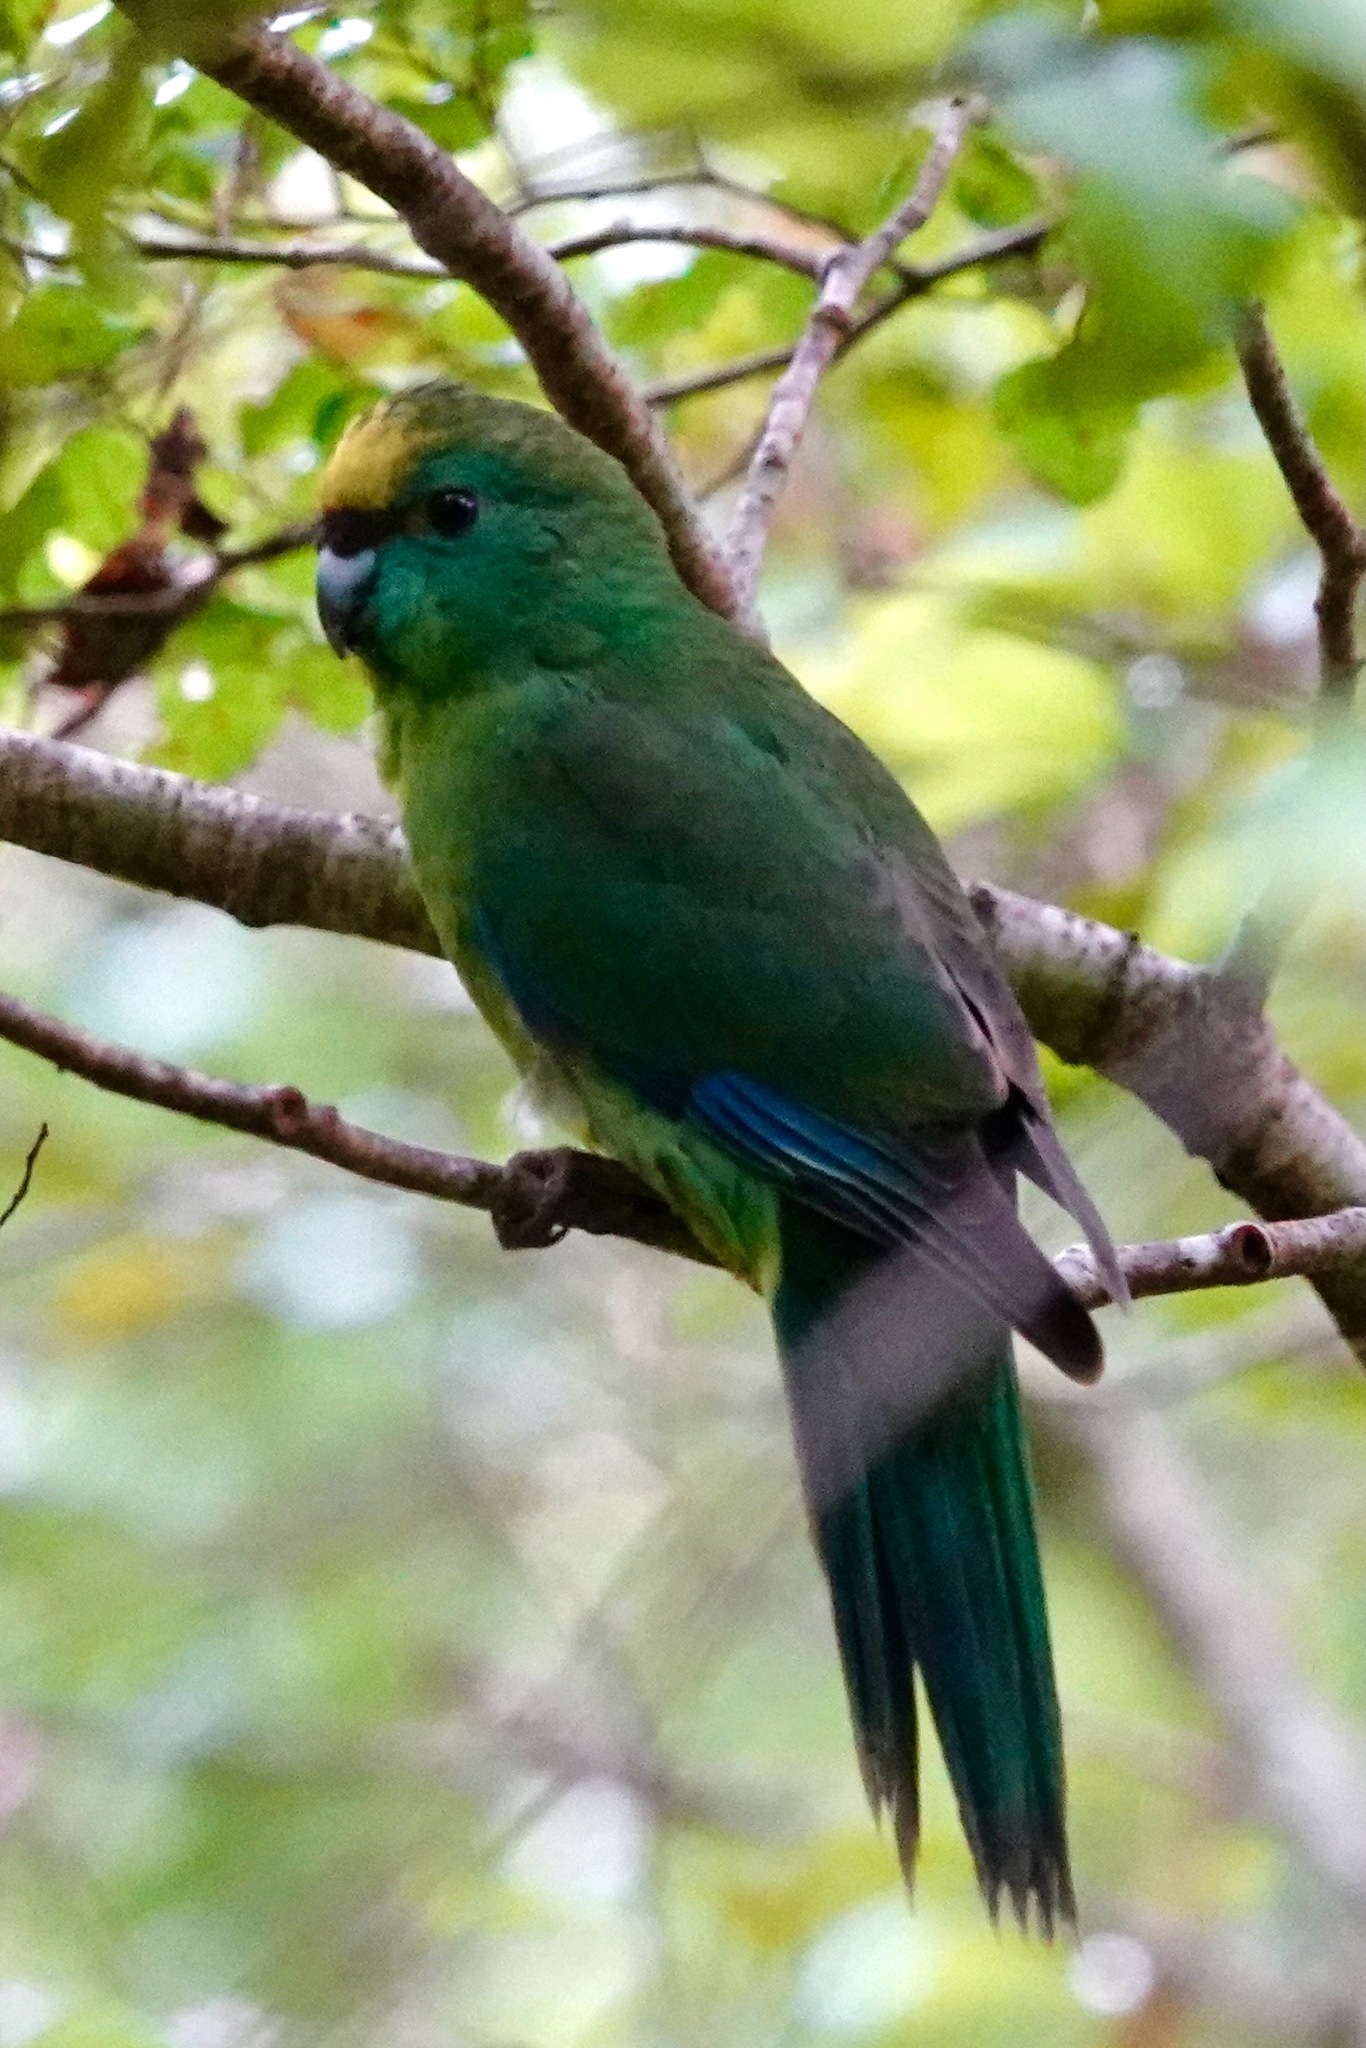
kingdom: Animalia
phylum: Chordata
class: Aves
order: Psittaciformes
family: Psittacidae
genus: Cyanoramphus
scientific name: Cyanoramphus malherbi
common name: Malherbe's parakeet
